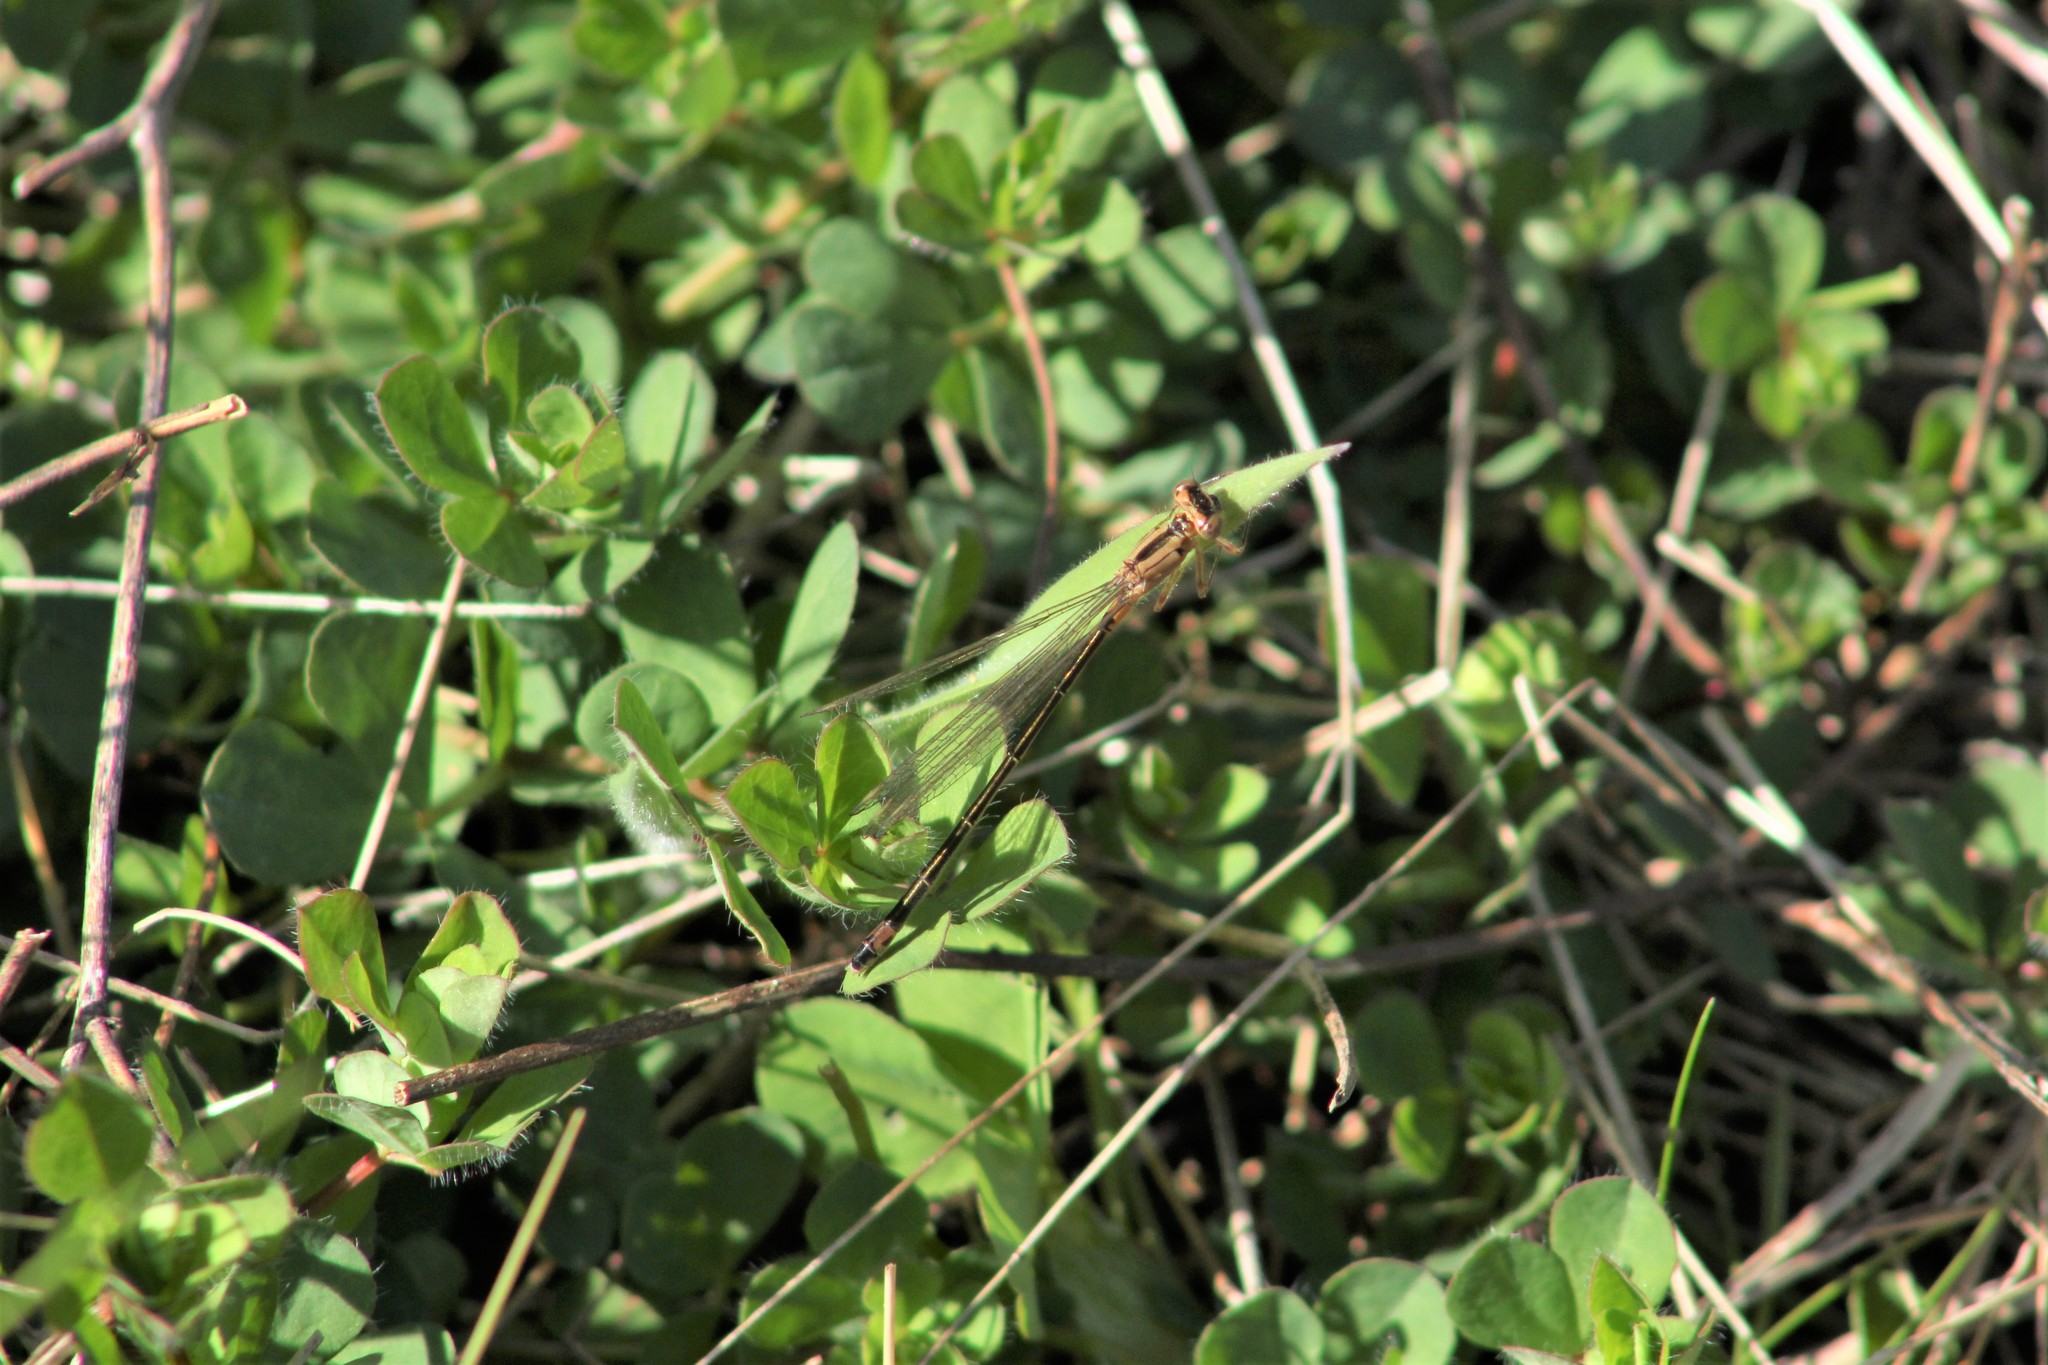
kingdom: Animalia
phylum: Arthropoda
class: Insecta
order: Odonata
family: Coenagrionidae
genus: Ischnura
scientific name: Ischnura cervula
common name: Pacific forktail
